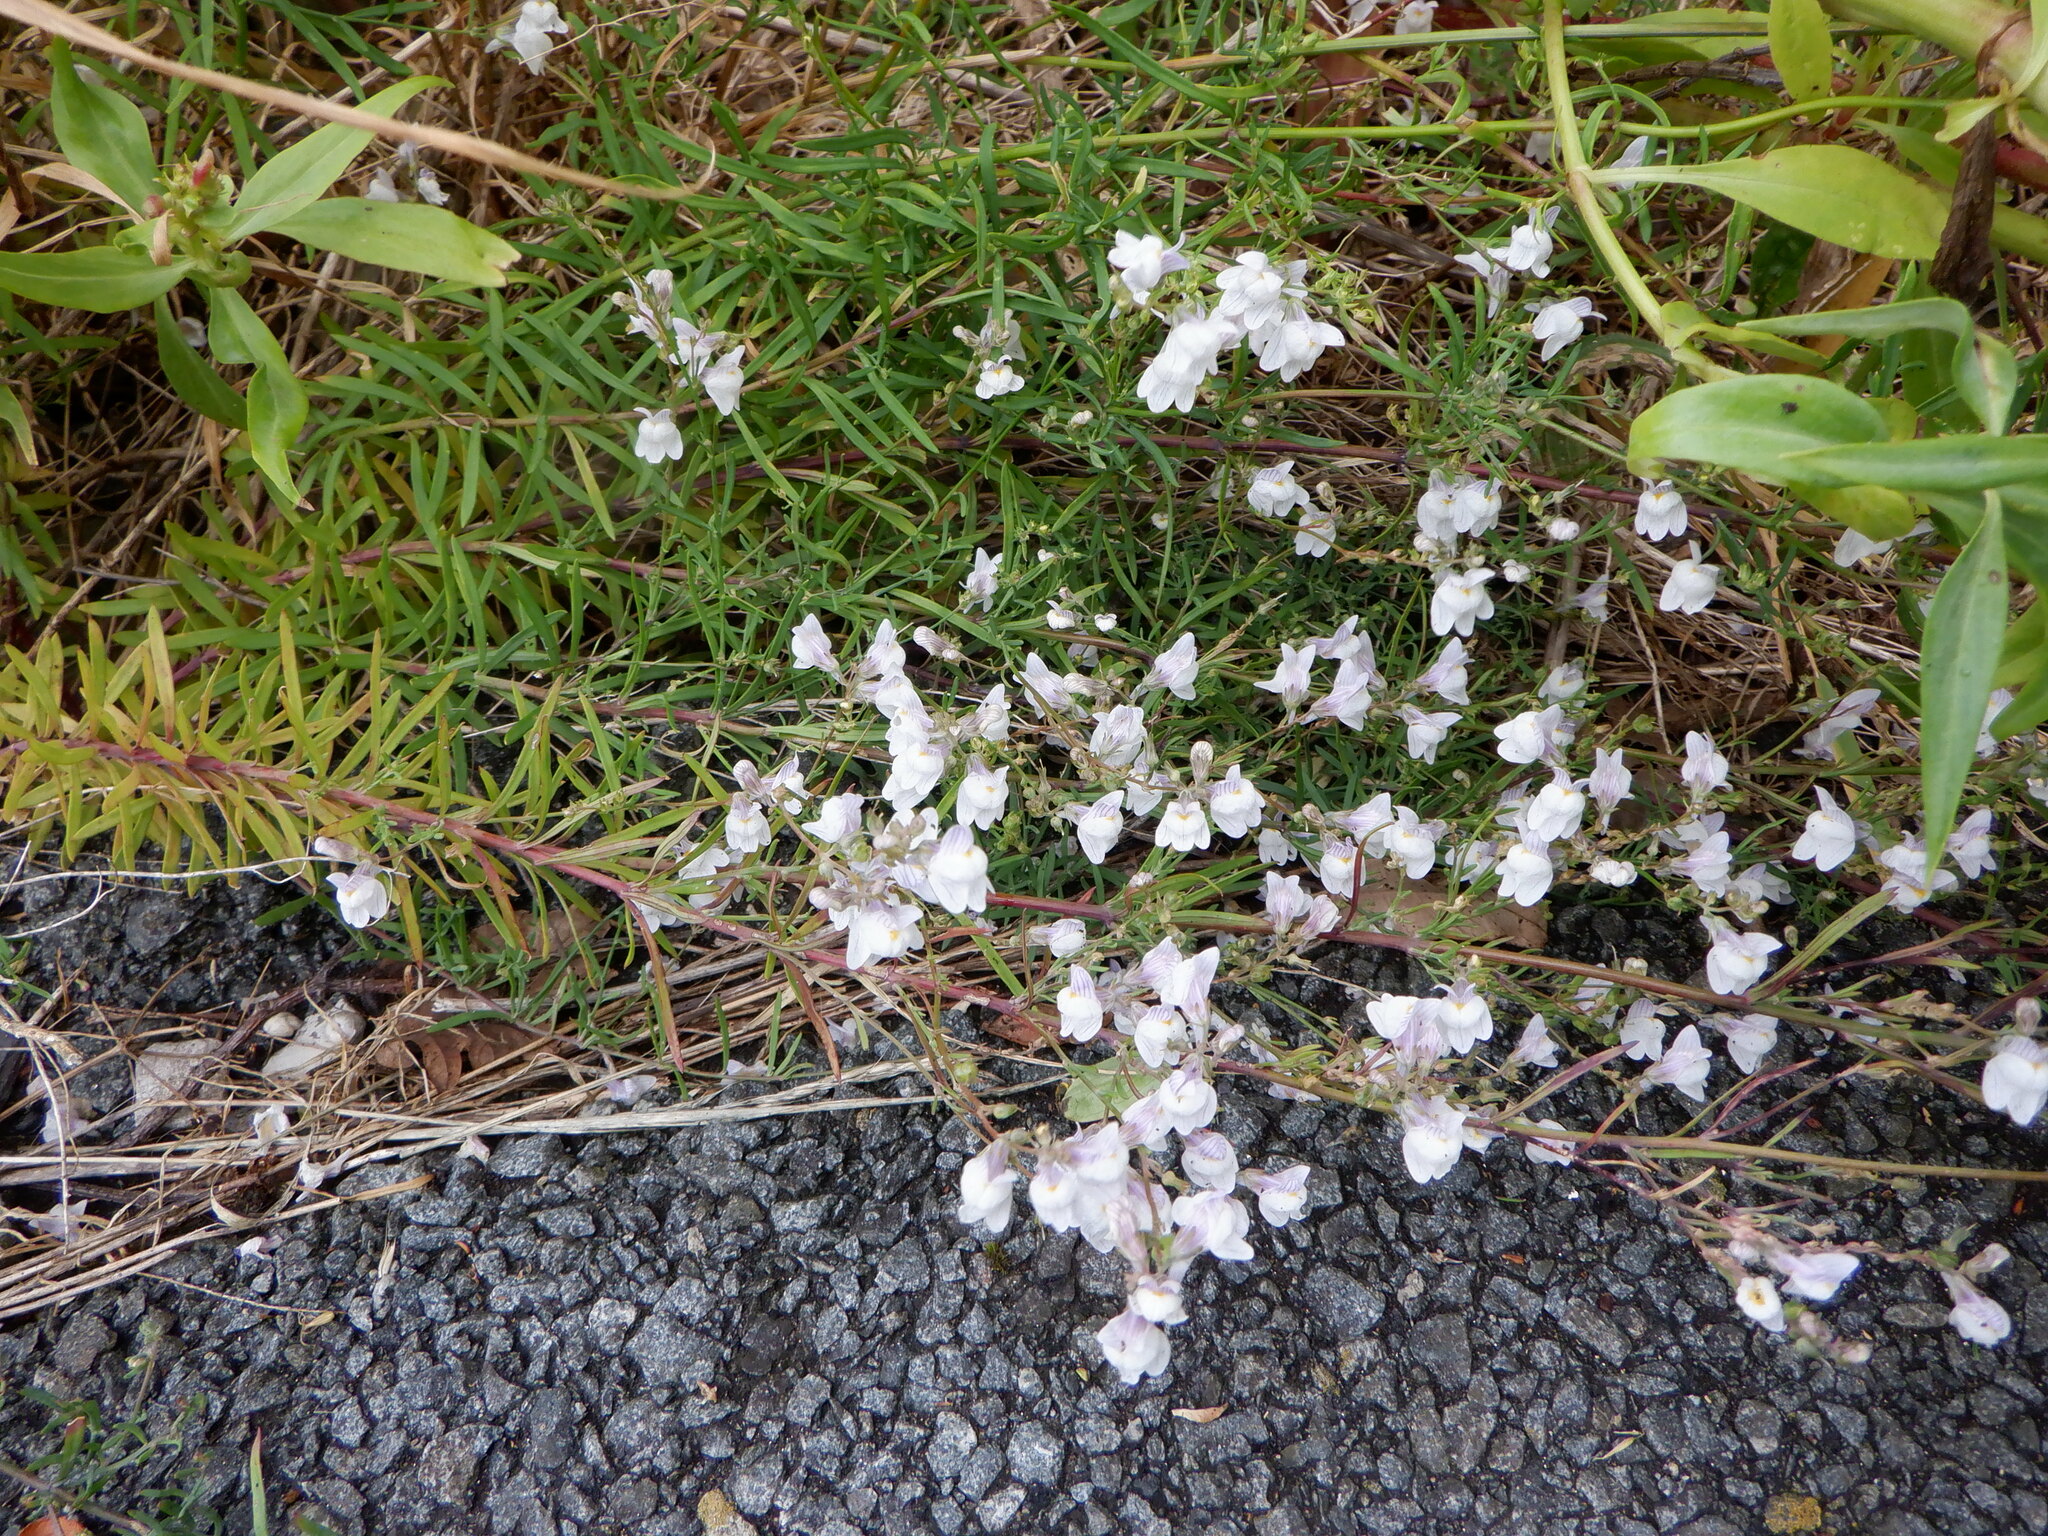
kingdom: Plantae
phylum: Tracheophyta
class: Magnoliopsida
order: Lamiales
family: Plantaginaceae
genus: Linaria
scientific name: Linaria repens
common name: Pale toadflax
